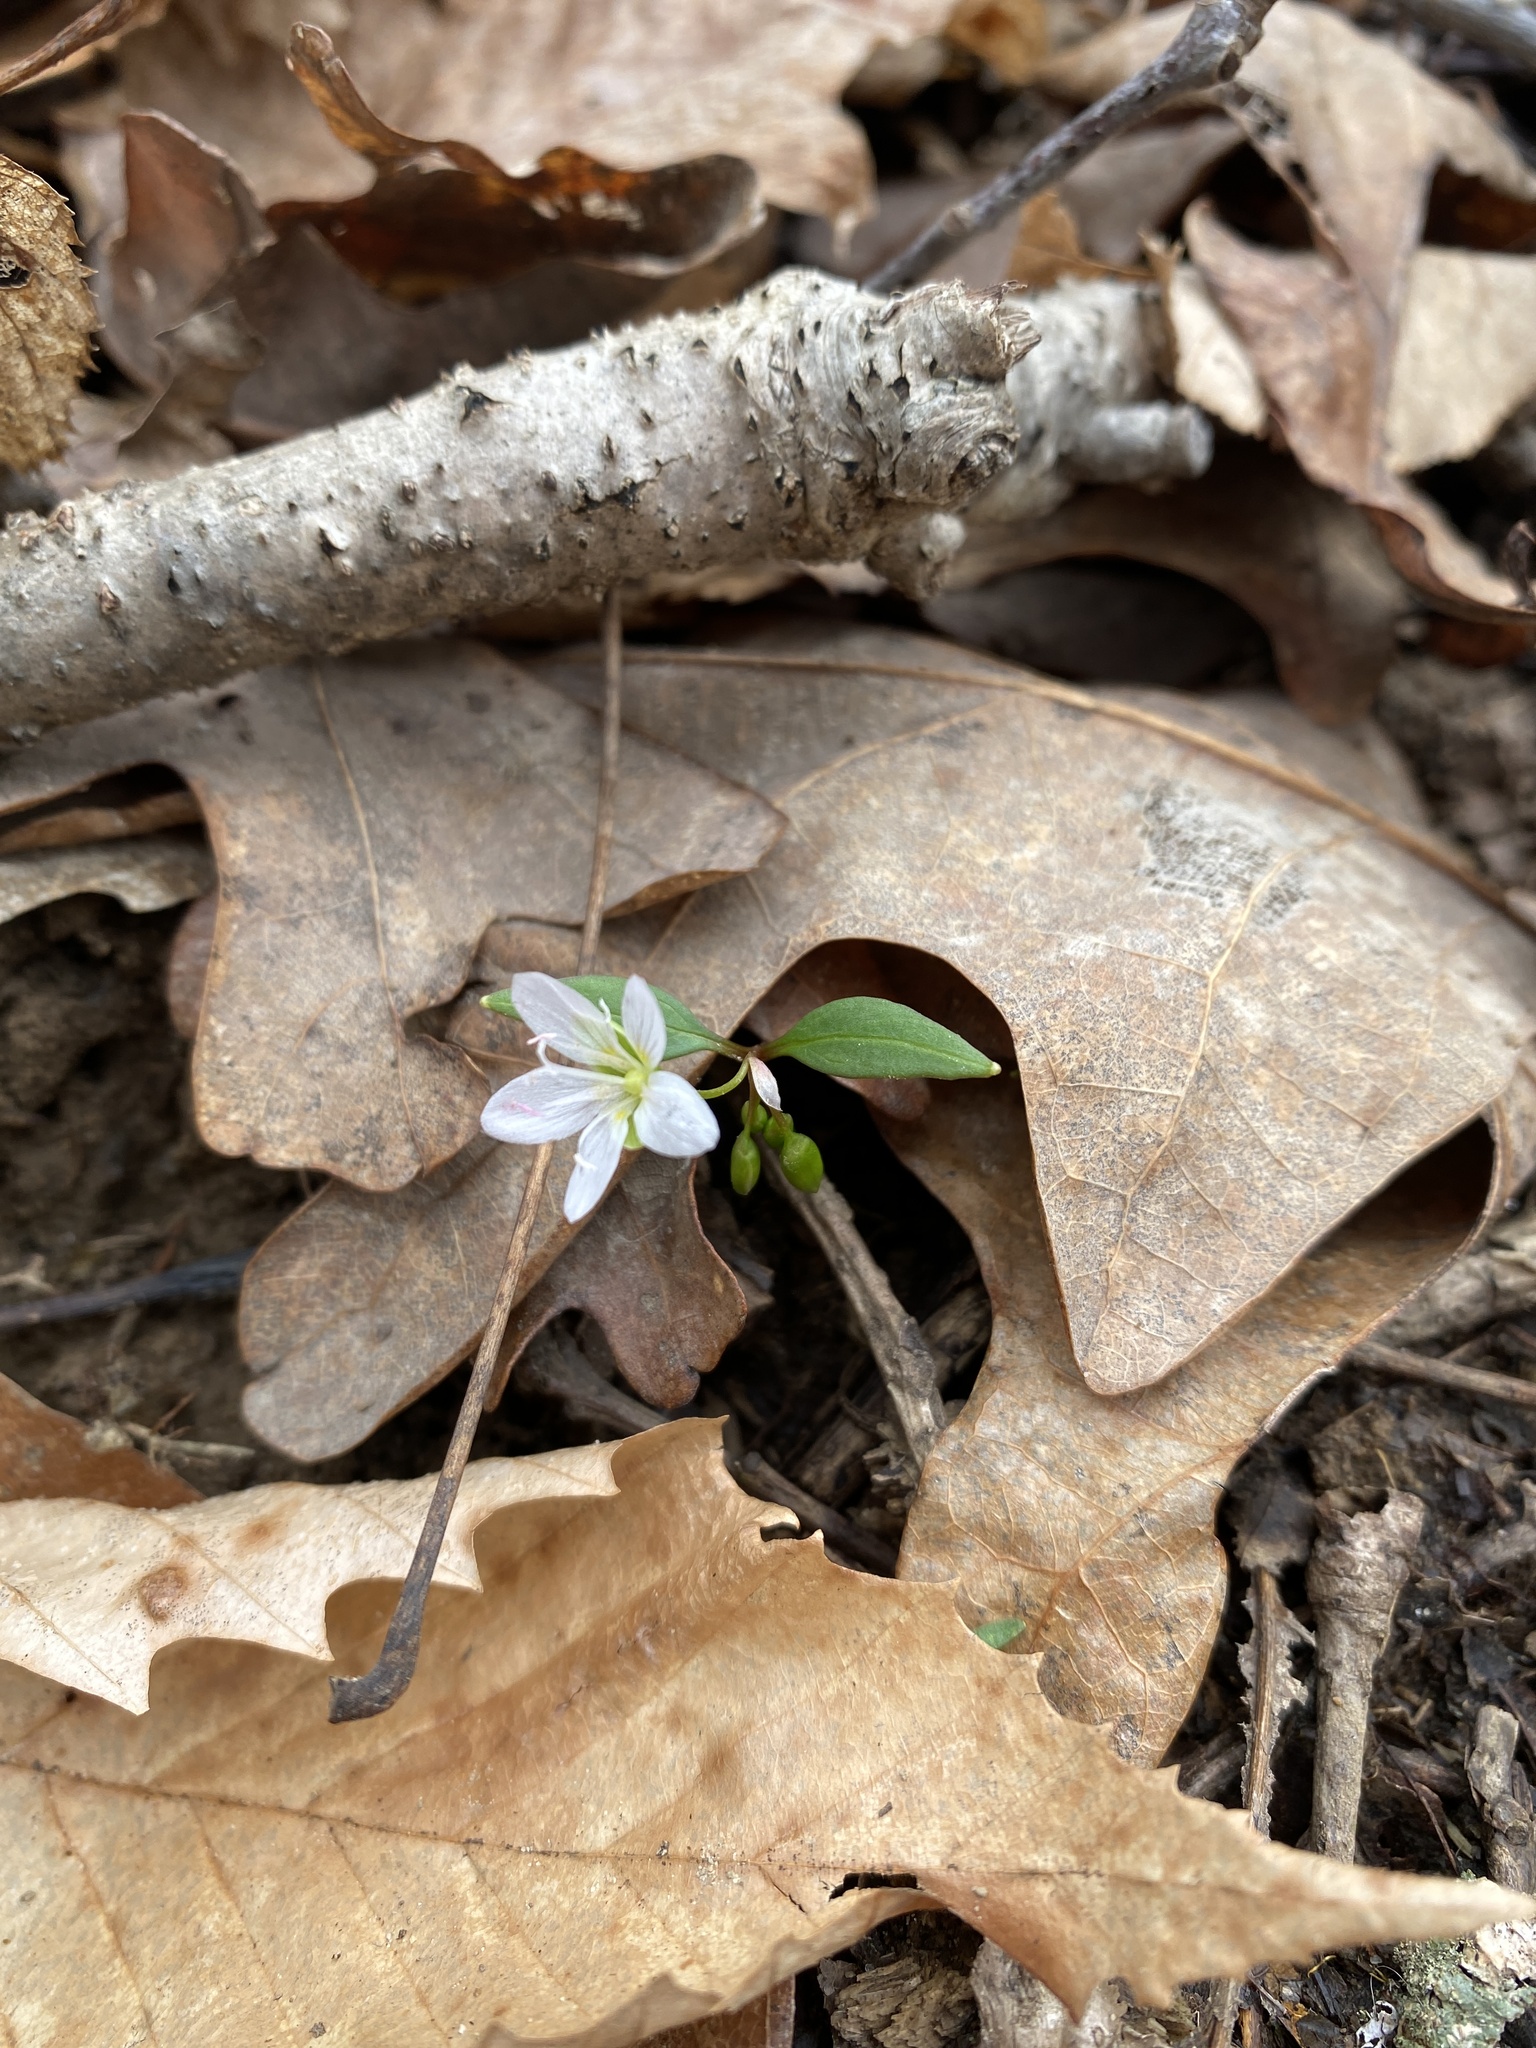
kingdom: Plantae
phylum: Tracheophyta
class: Magnoliopsida
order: Caryophyllales
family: Montiaceae
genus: Claytonia
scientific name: Claytonia caroliniana
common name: Carolina spring beauty
